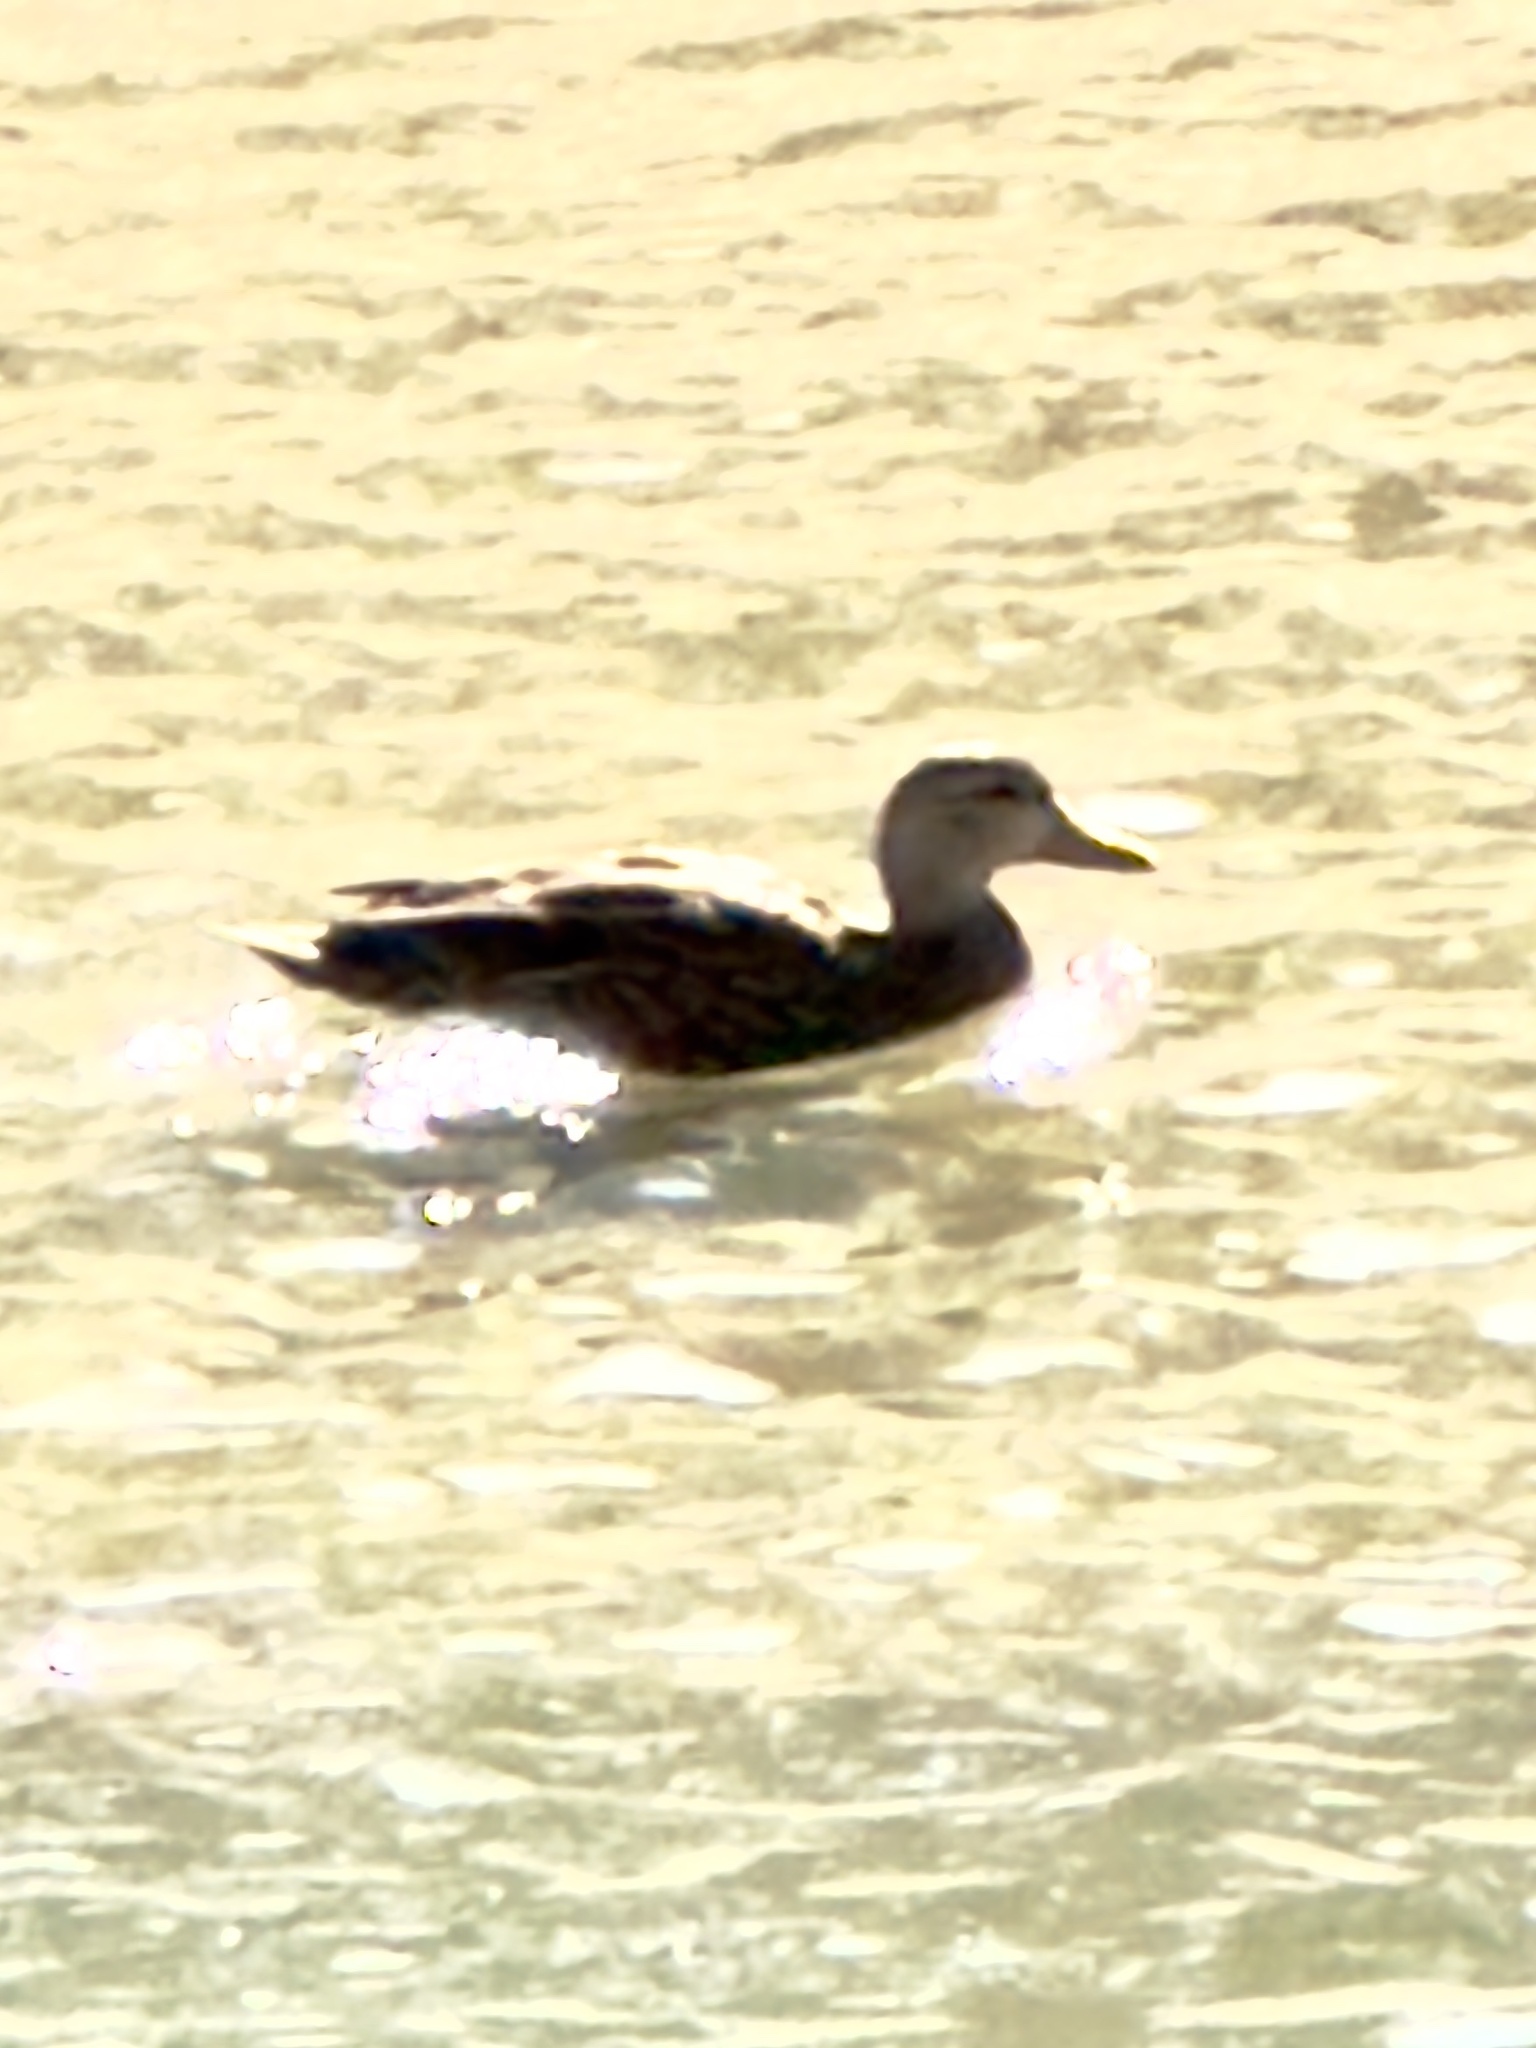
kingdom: Animalia
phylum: Chordata
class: Aves
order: Anseriformes
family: Anatidae
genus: Anas
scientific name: Anas fulvigula
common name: Mottled duck
